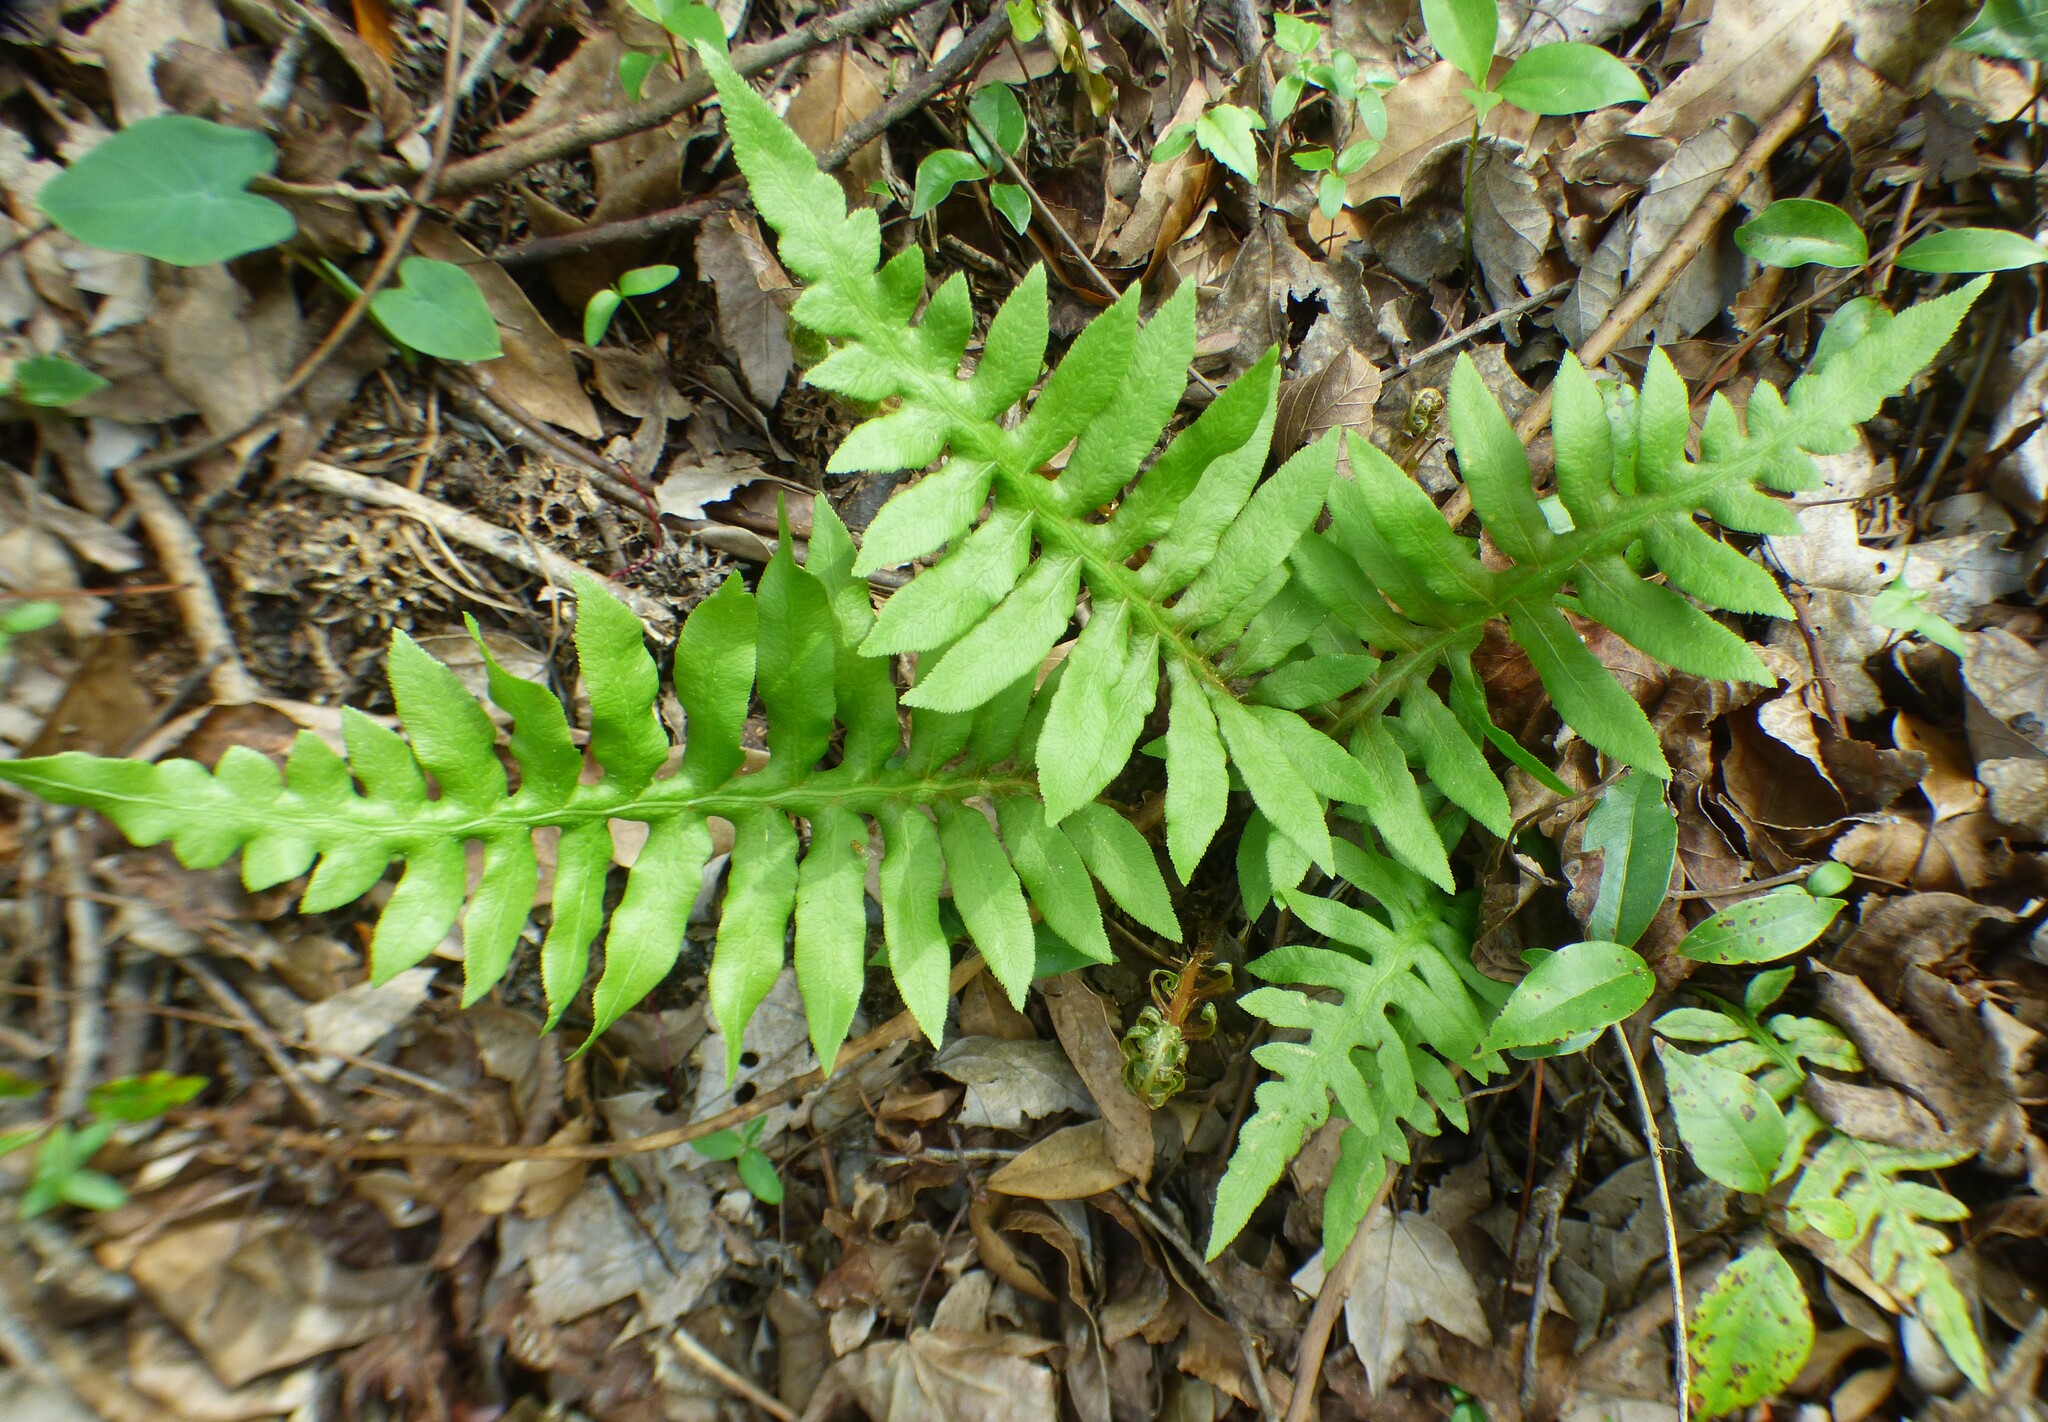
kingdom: Plantae
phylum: Tracheophyta
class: Polypodiopsida
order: Polypodiales
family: Blechnaceae
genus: Lorinseria
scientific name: Lorinseria areolata
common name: Dwarf chain fern
